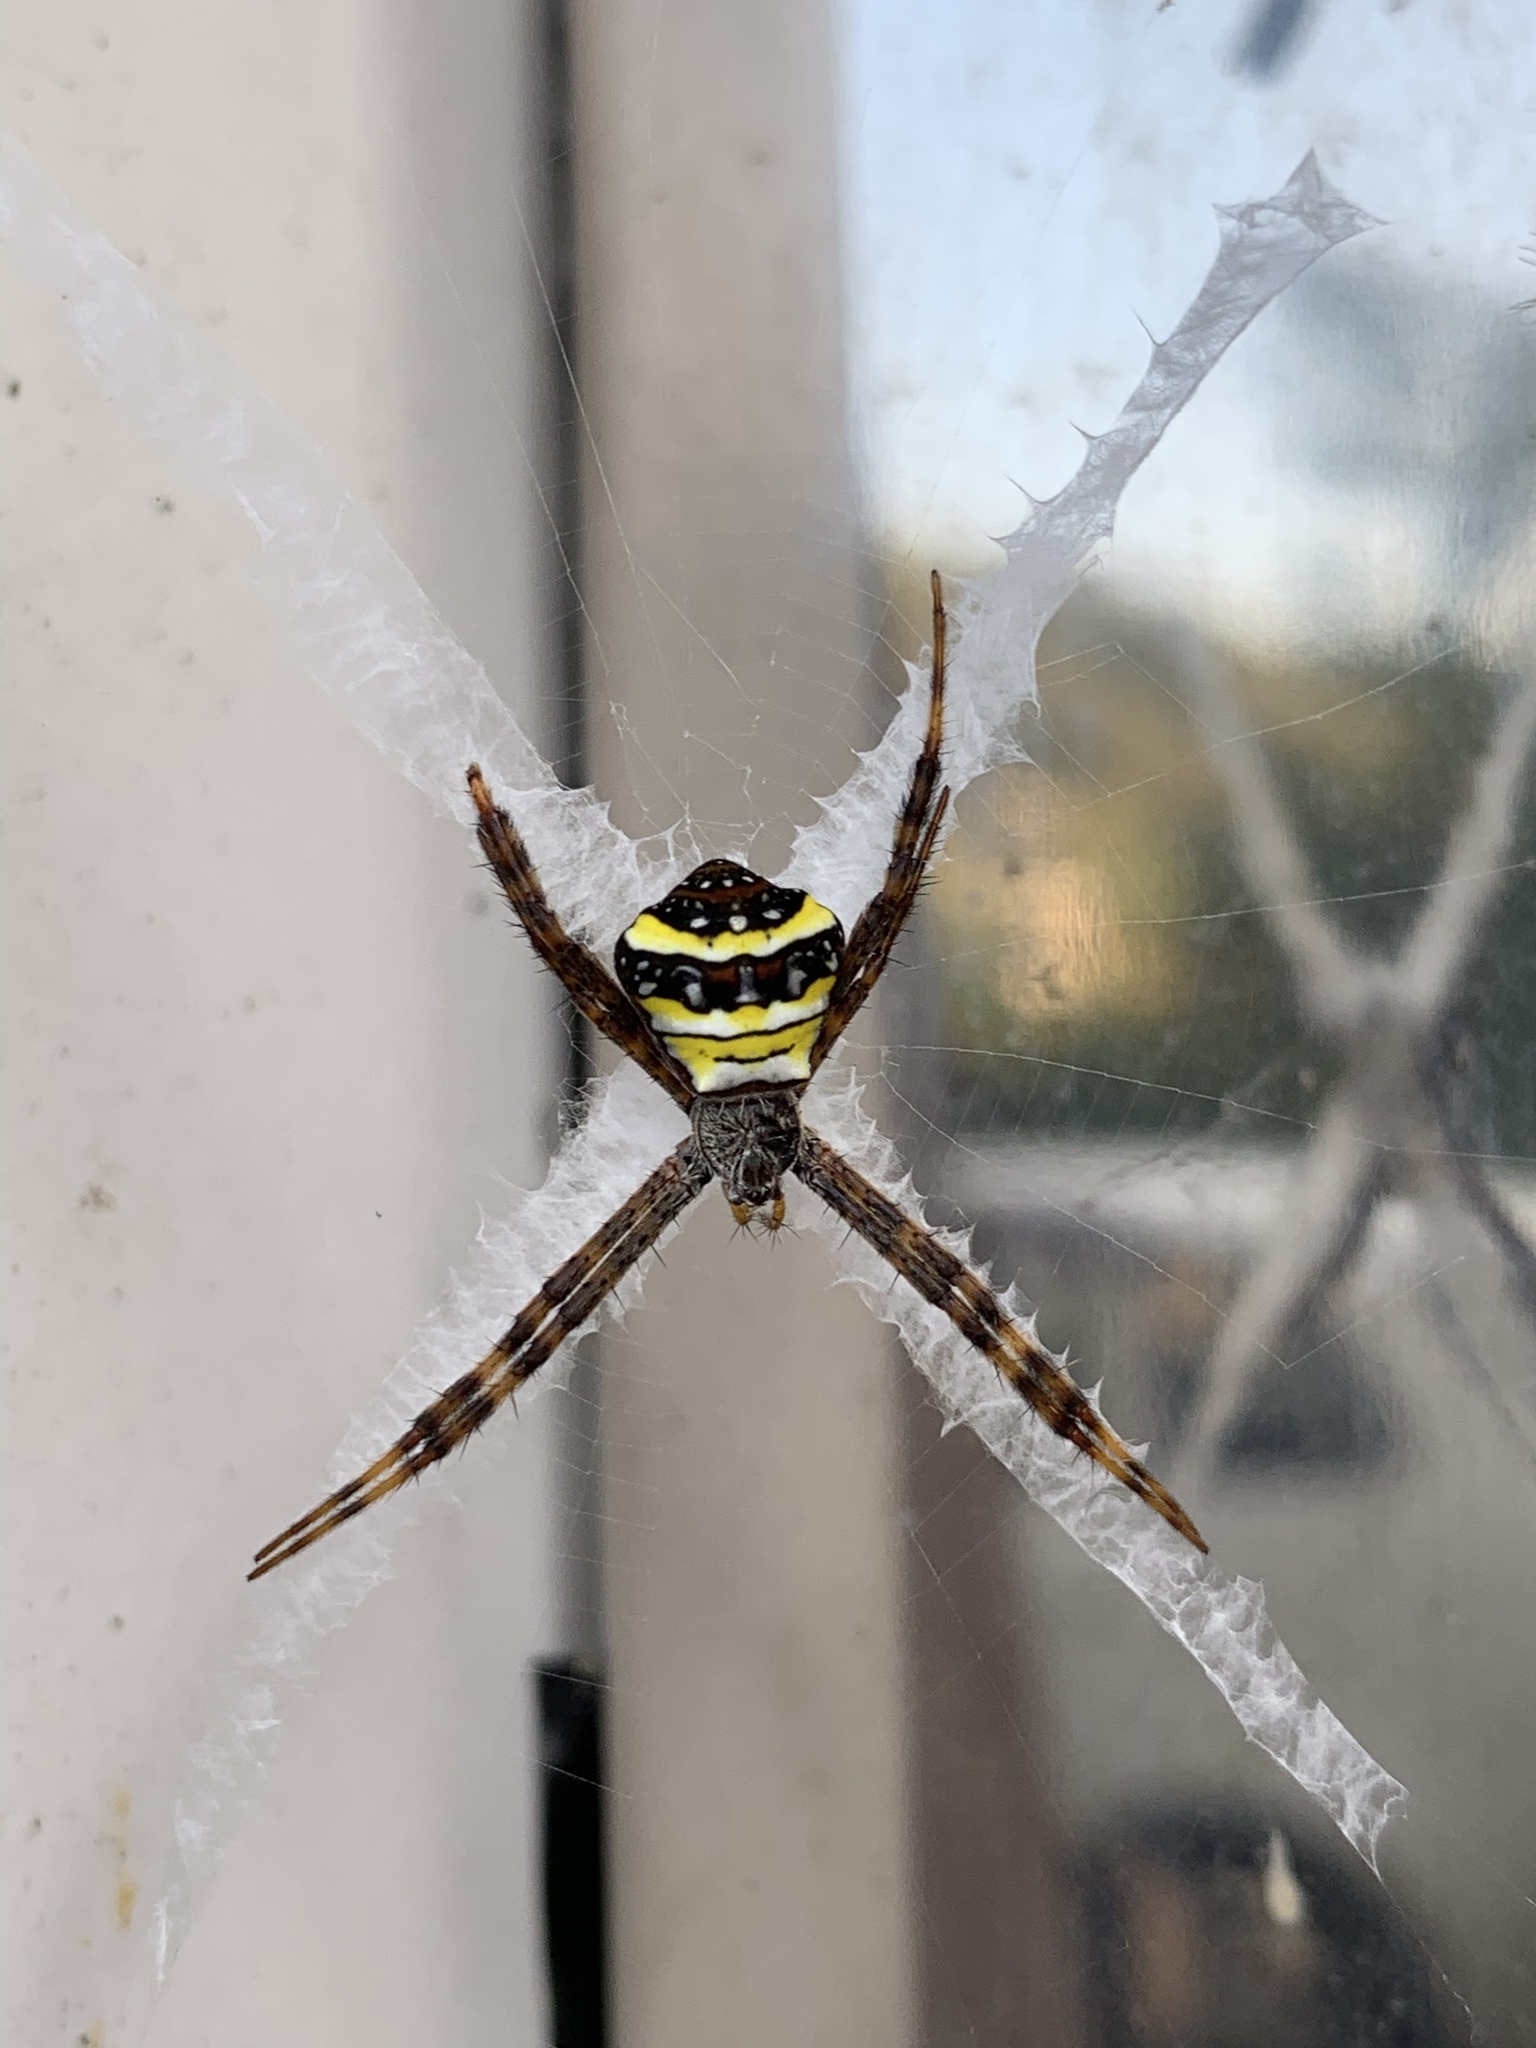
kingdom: Animalia
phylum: Arthropoda
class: Arachnida
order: Araneae
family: Araneidae
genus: Argiope
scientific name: Argiope aetheroides
